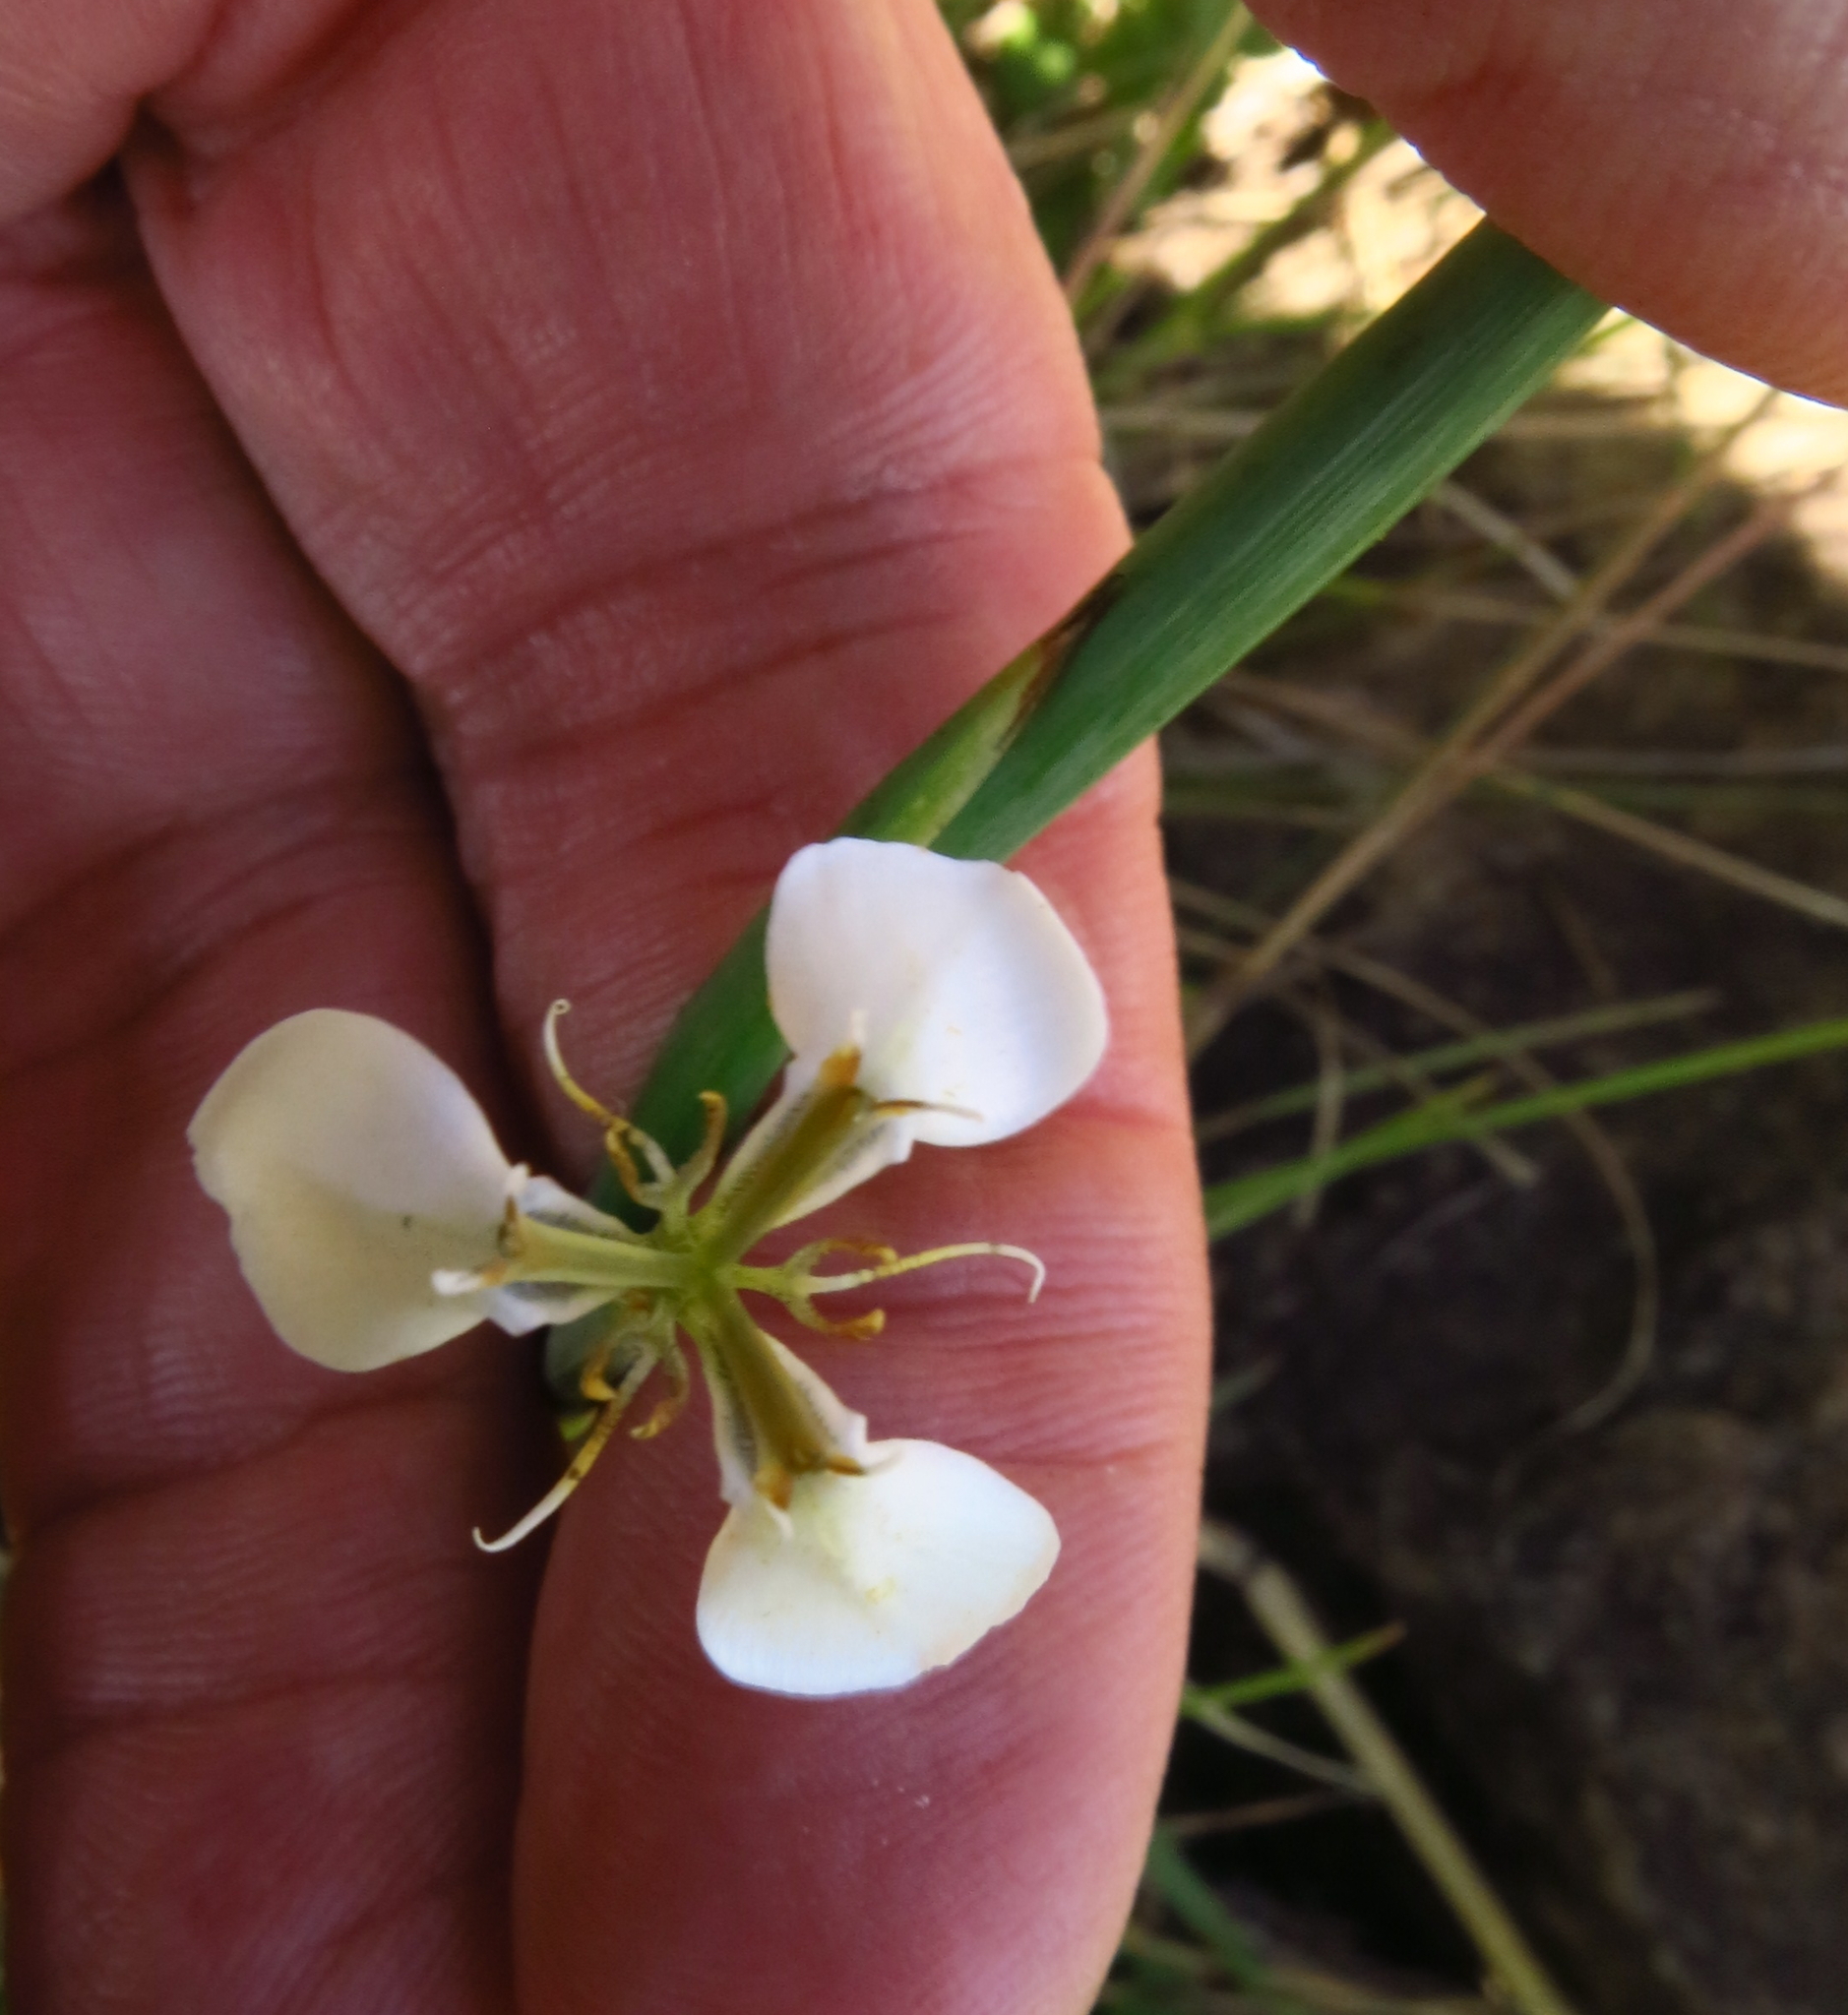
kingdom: Plantae
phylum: Tracheophyta
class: Liliopsida
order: Asparagales
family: Iridaceae
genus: Moraea
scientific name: Moraea brevistyla
